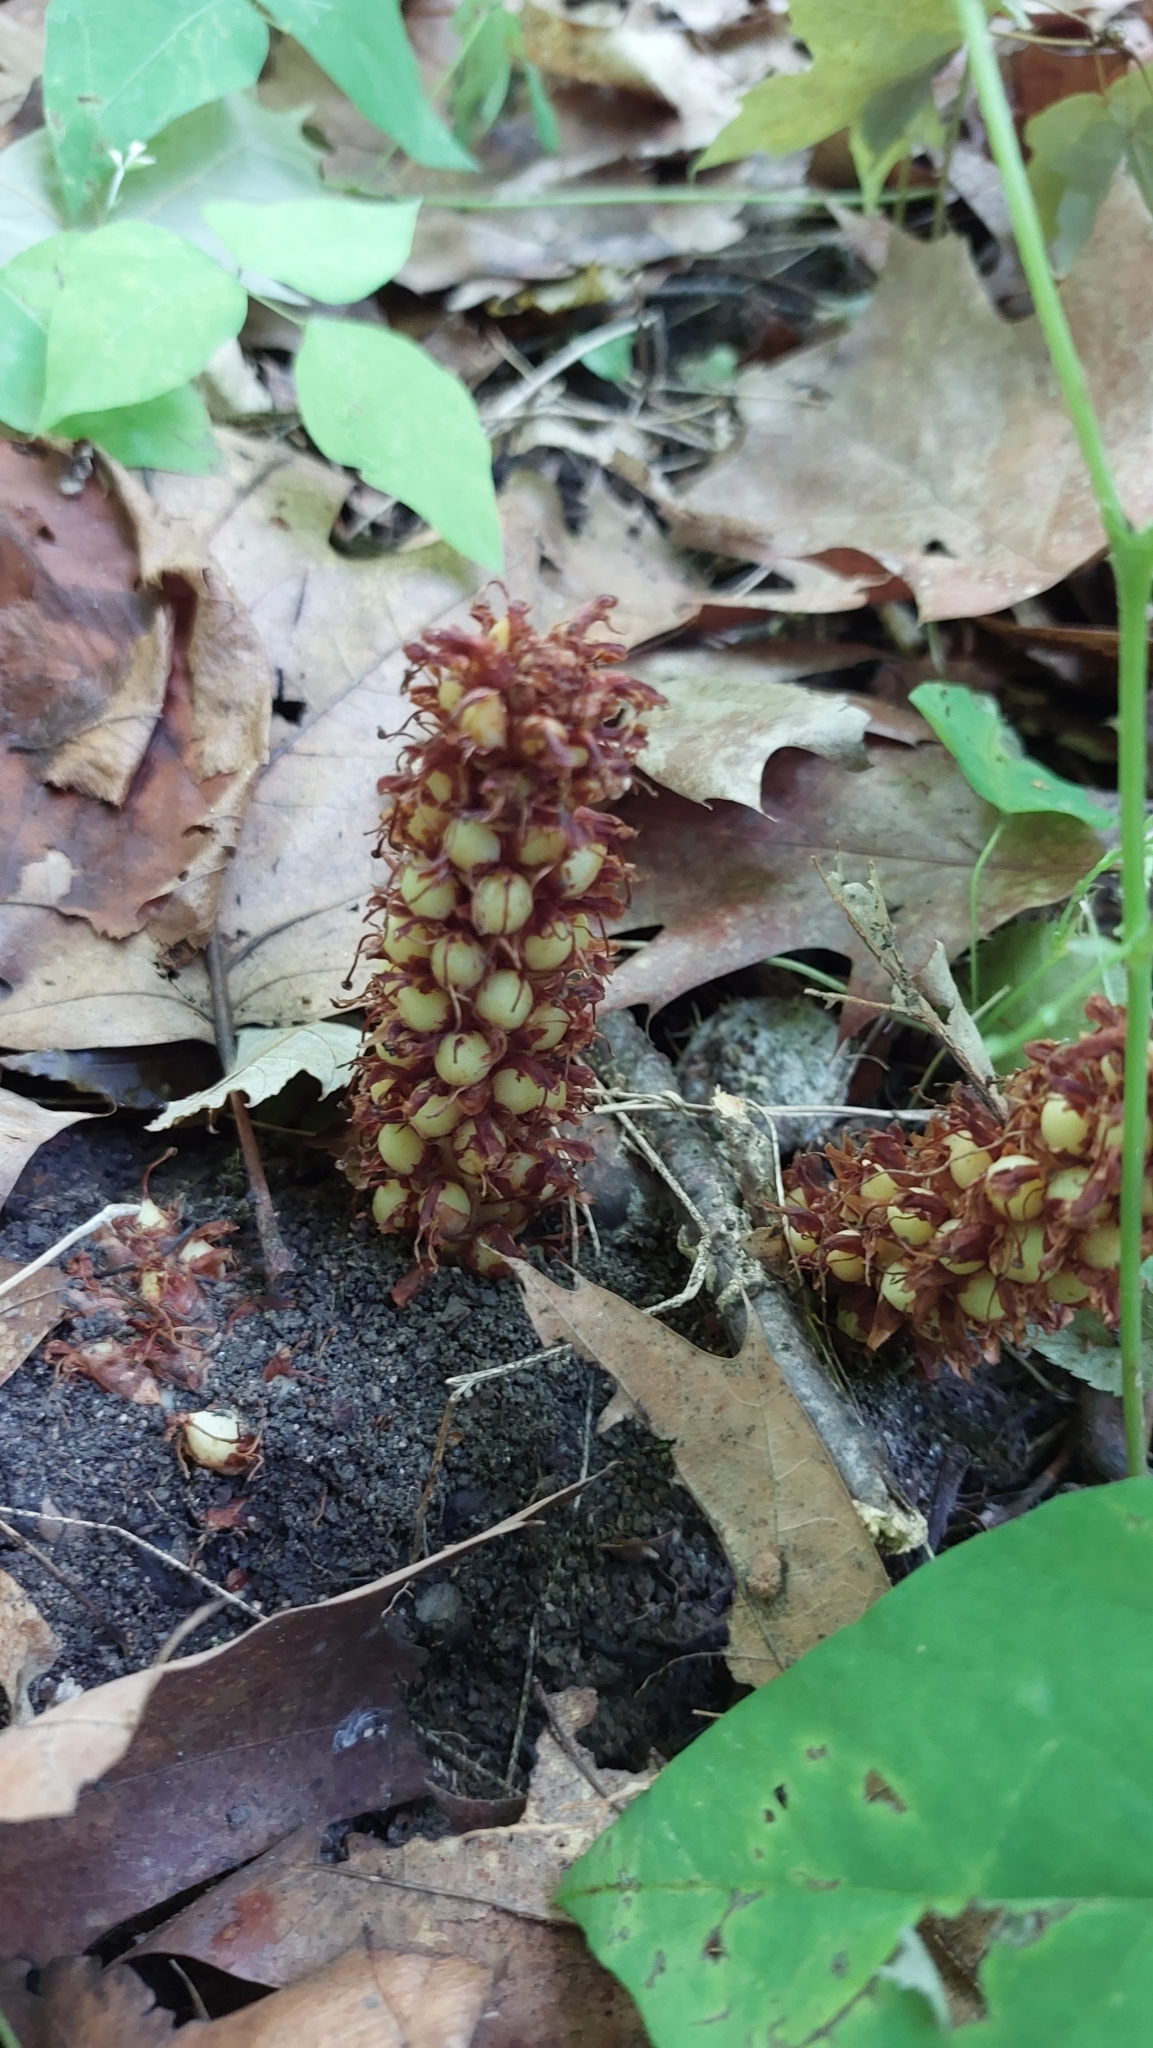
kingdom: Plantae
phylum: Tracheophyta
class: Magnoliopsida
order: Lamiales
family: Orobanchaceae
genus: Conopholis
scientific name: Conopholis americana
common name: American cancer-root
